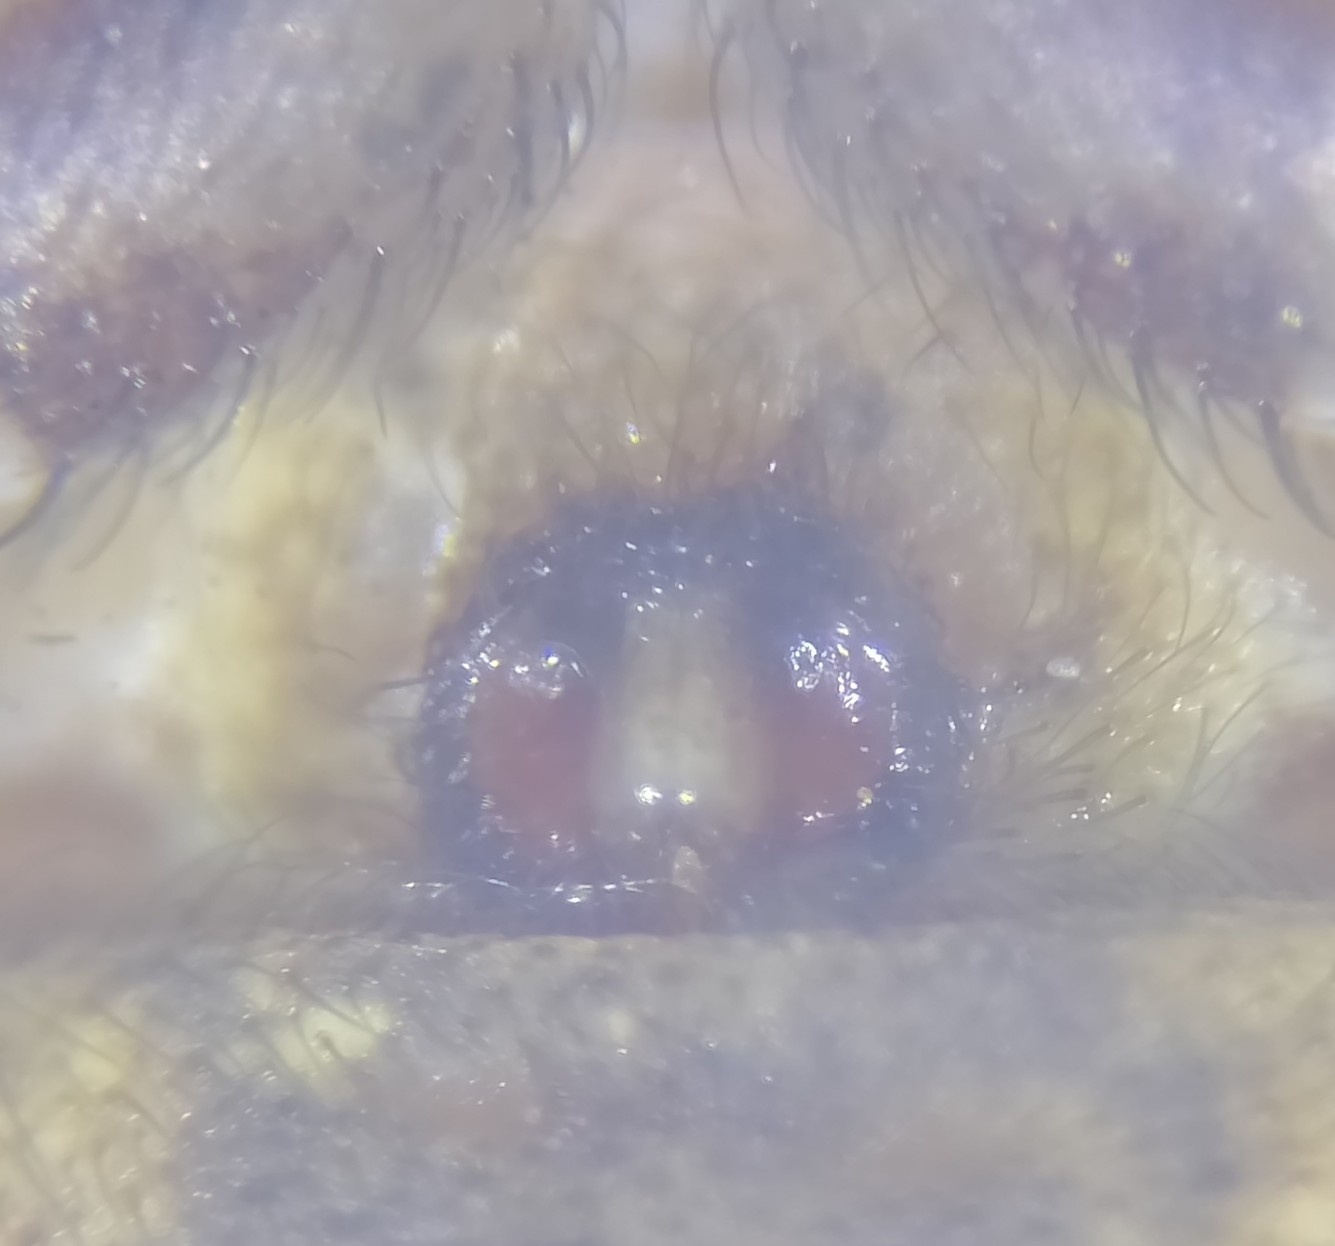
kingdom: Animalia
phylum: Arthropoda
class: Arachnida
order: Araneae
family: Thomisidae
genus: Spiracme
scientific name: Spiracme striatipes
